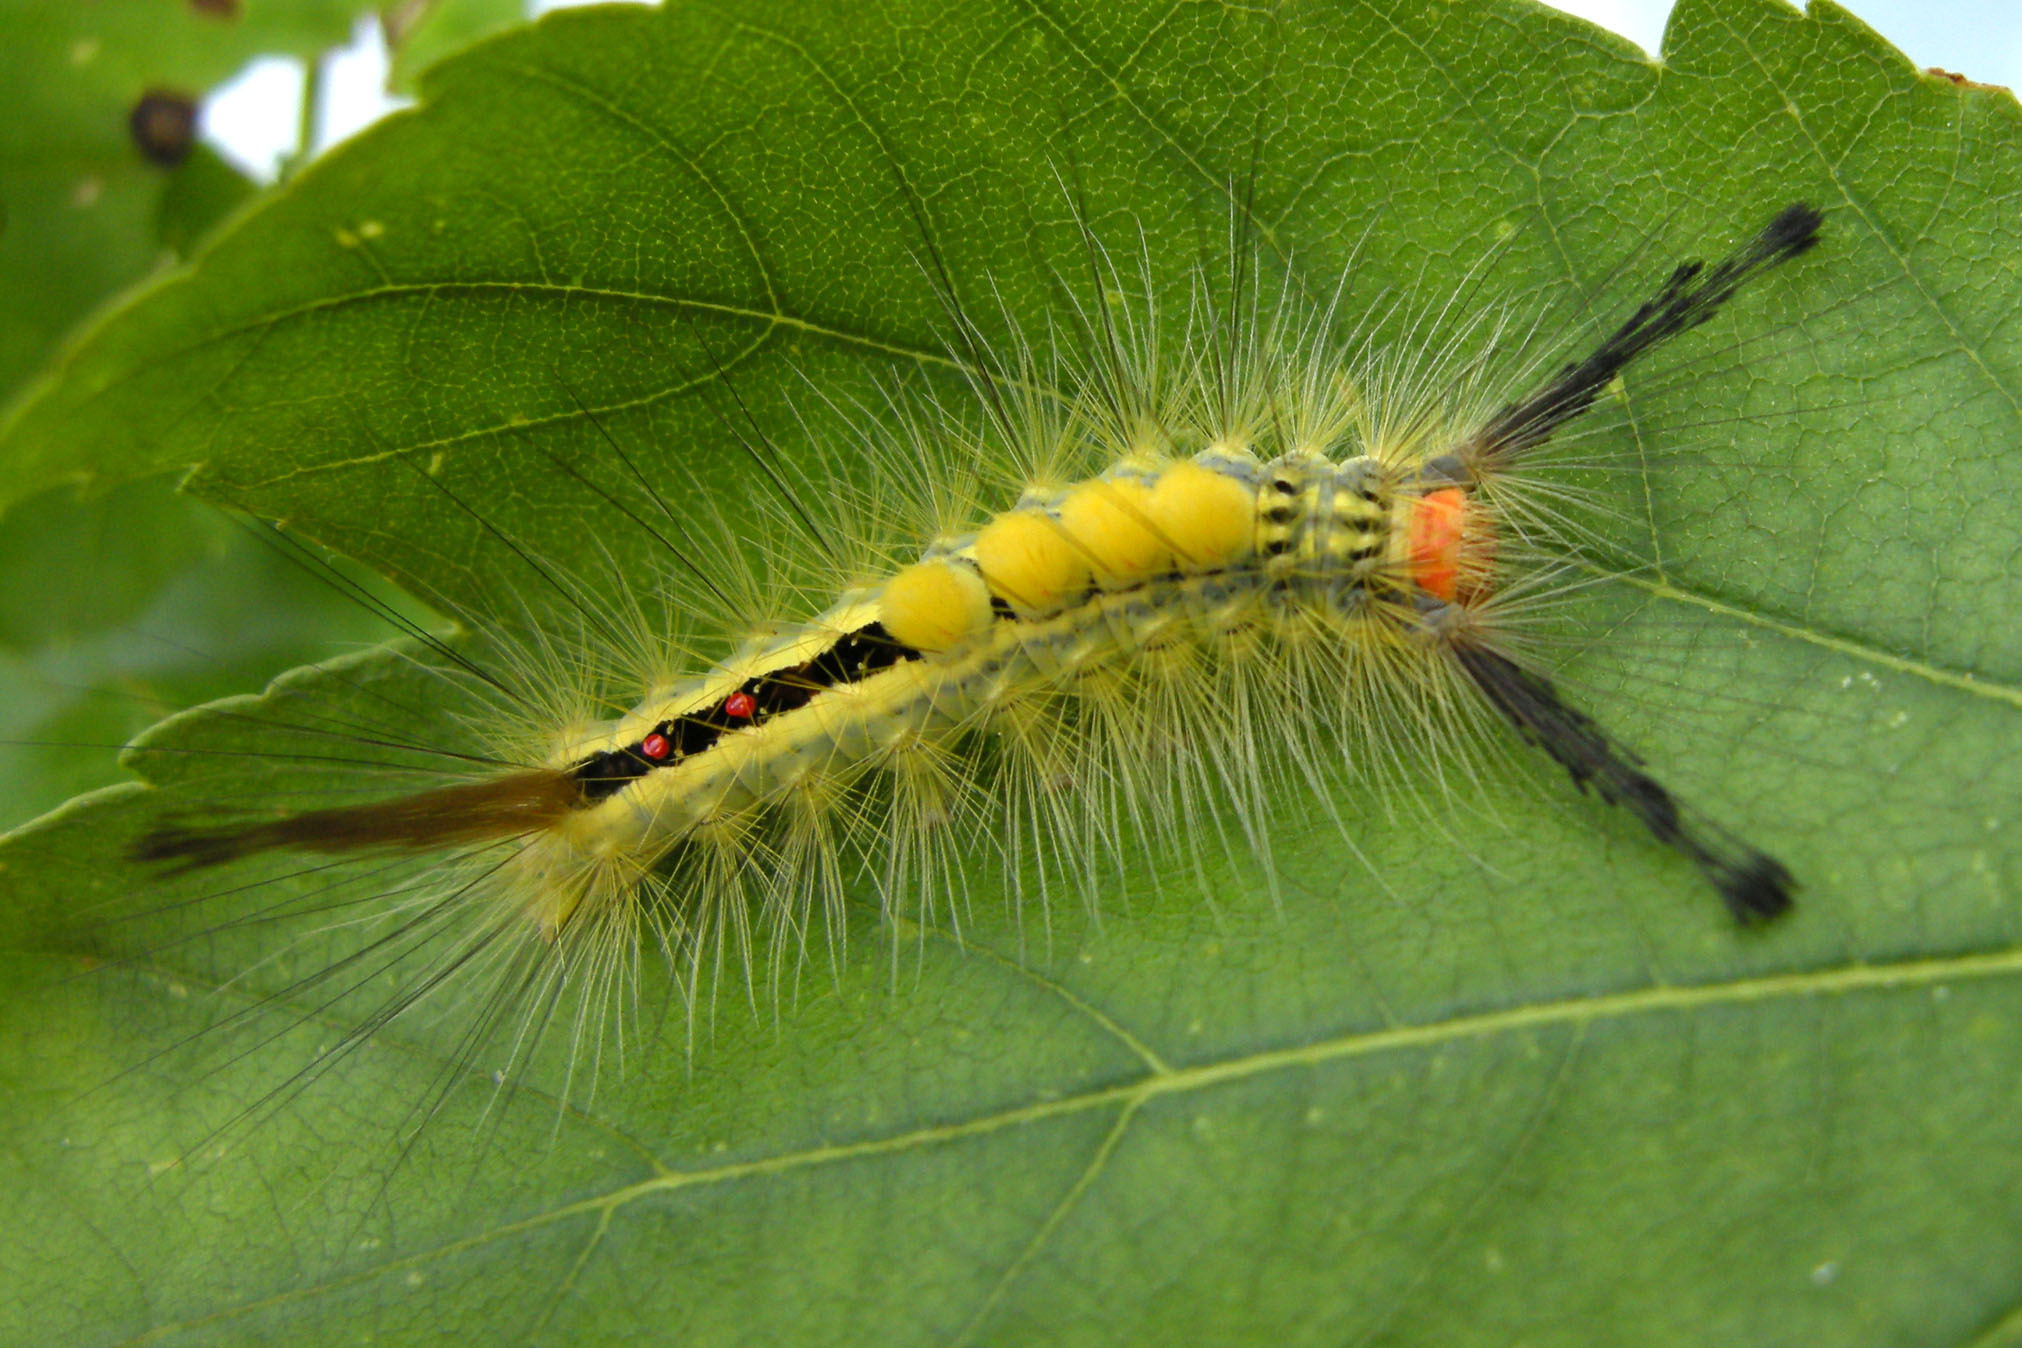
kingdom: Animalia
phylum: Arthropoda
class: Insecta
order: Lepidoptera
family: Erebidae
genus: Orgyia
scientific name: Orgyia leucostigma
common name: White-marked tussock moth
